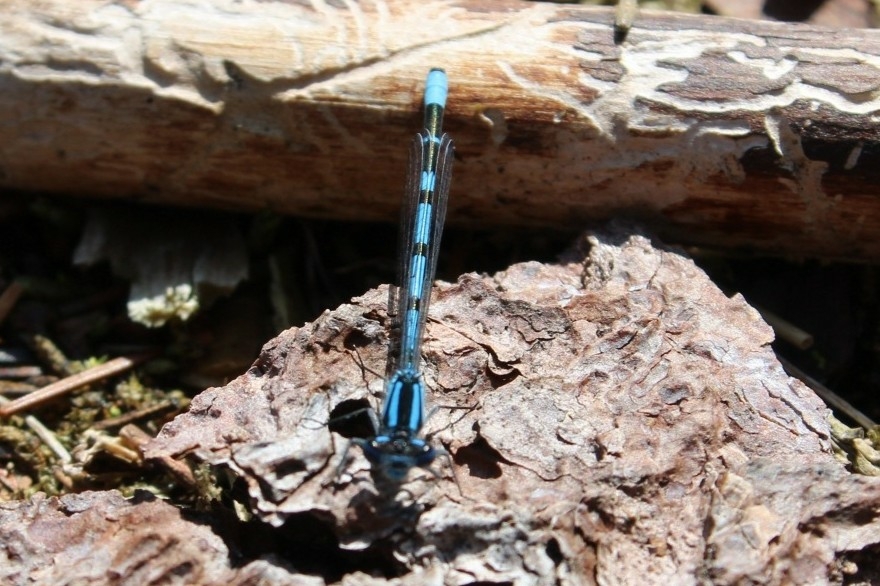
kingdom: Animalia
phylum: Arthropoda
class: Insecta
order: Odonata
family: Coenagrionidae
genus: Enallagma
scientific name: Enallagma cyathigerum
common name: Common blue damselfly
